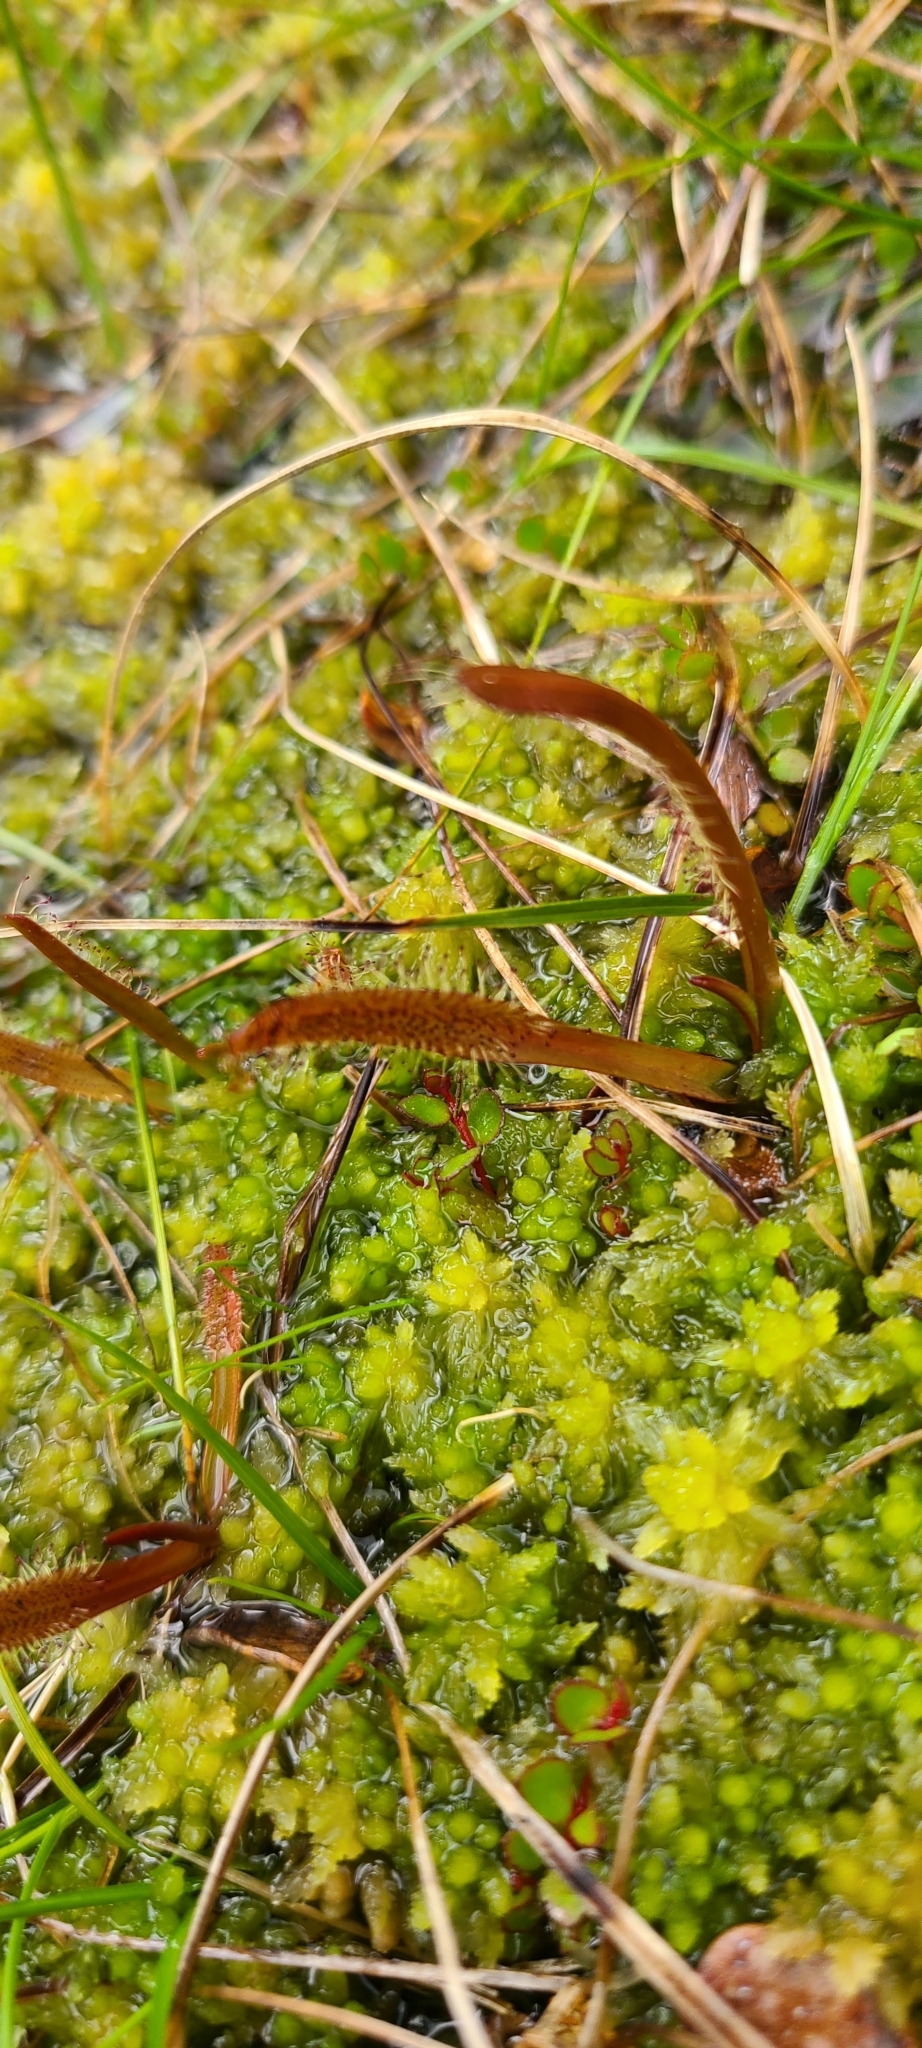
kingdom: Plantae
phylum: Tracheophyta
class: Magnoliopsida
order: Caryophyllales
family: Droseraceae
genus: Drosera
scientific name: Drosera arcturi
